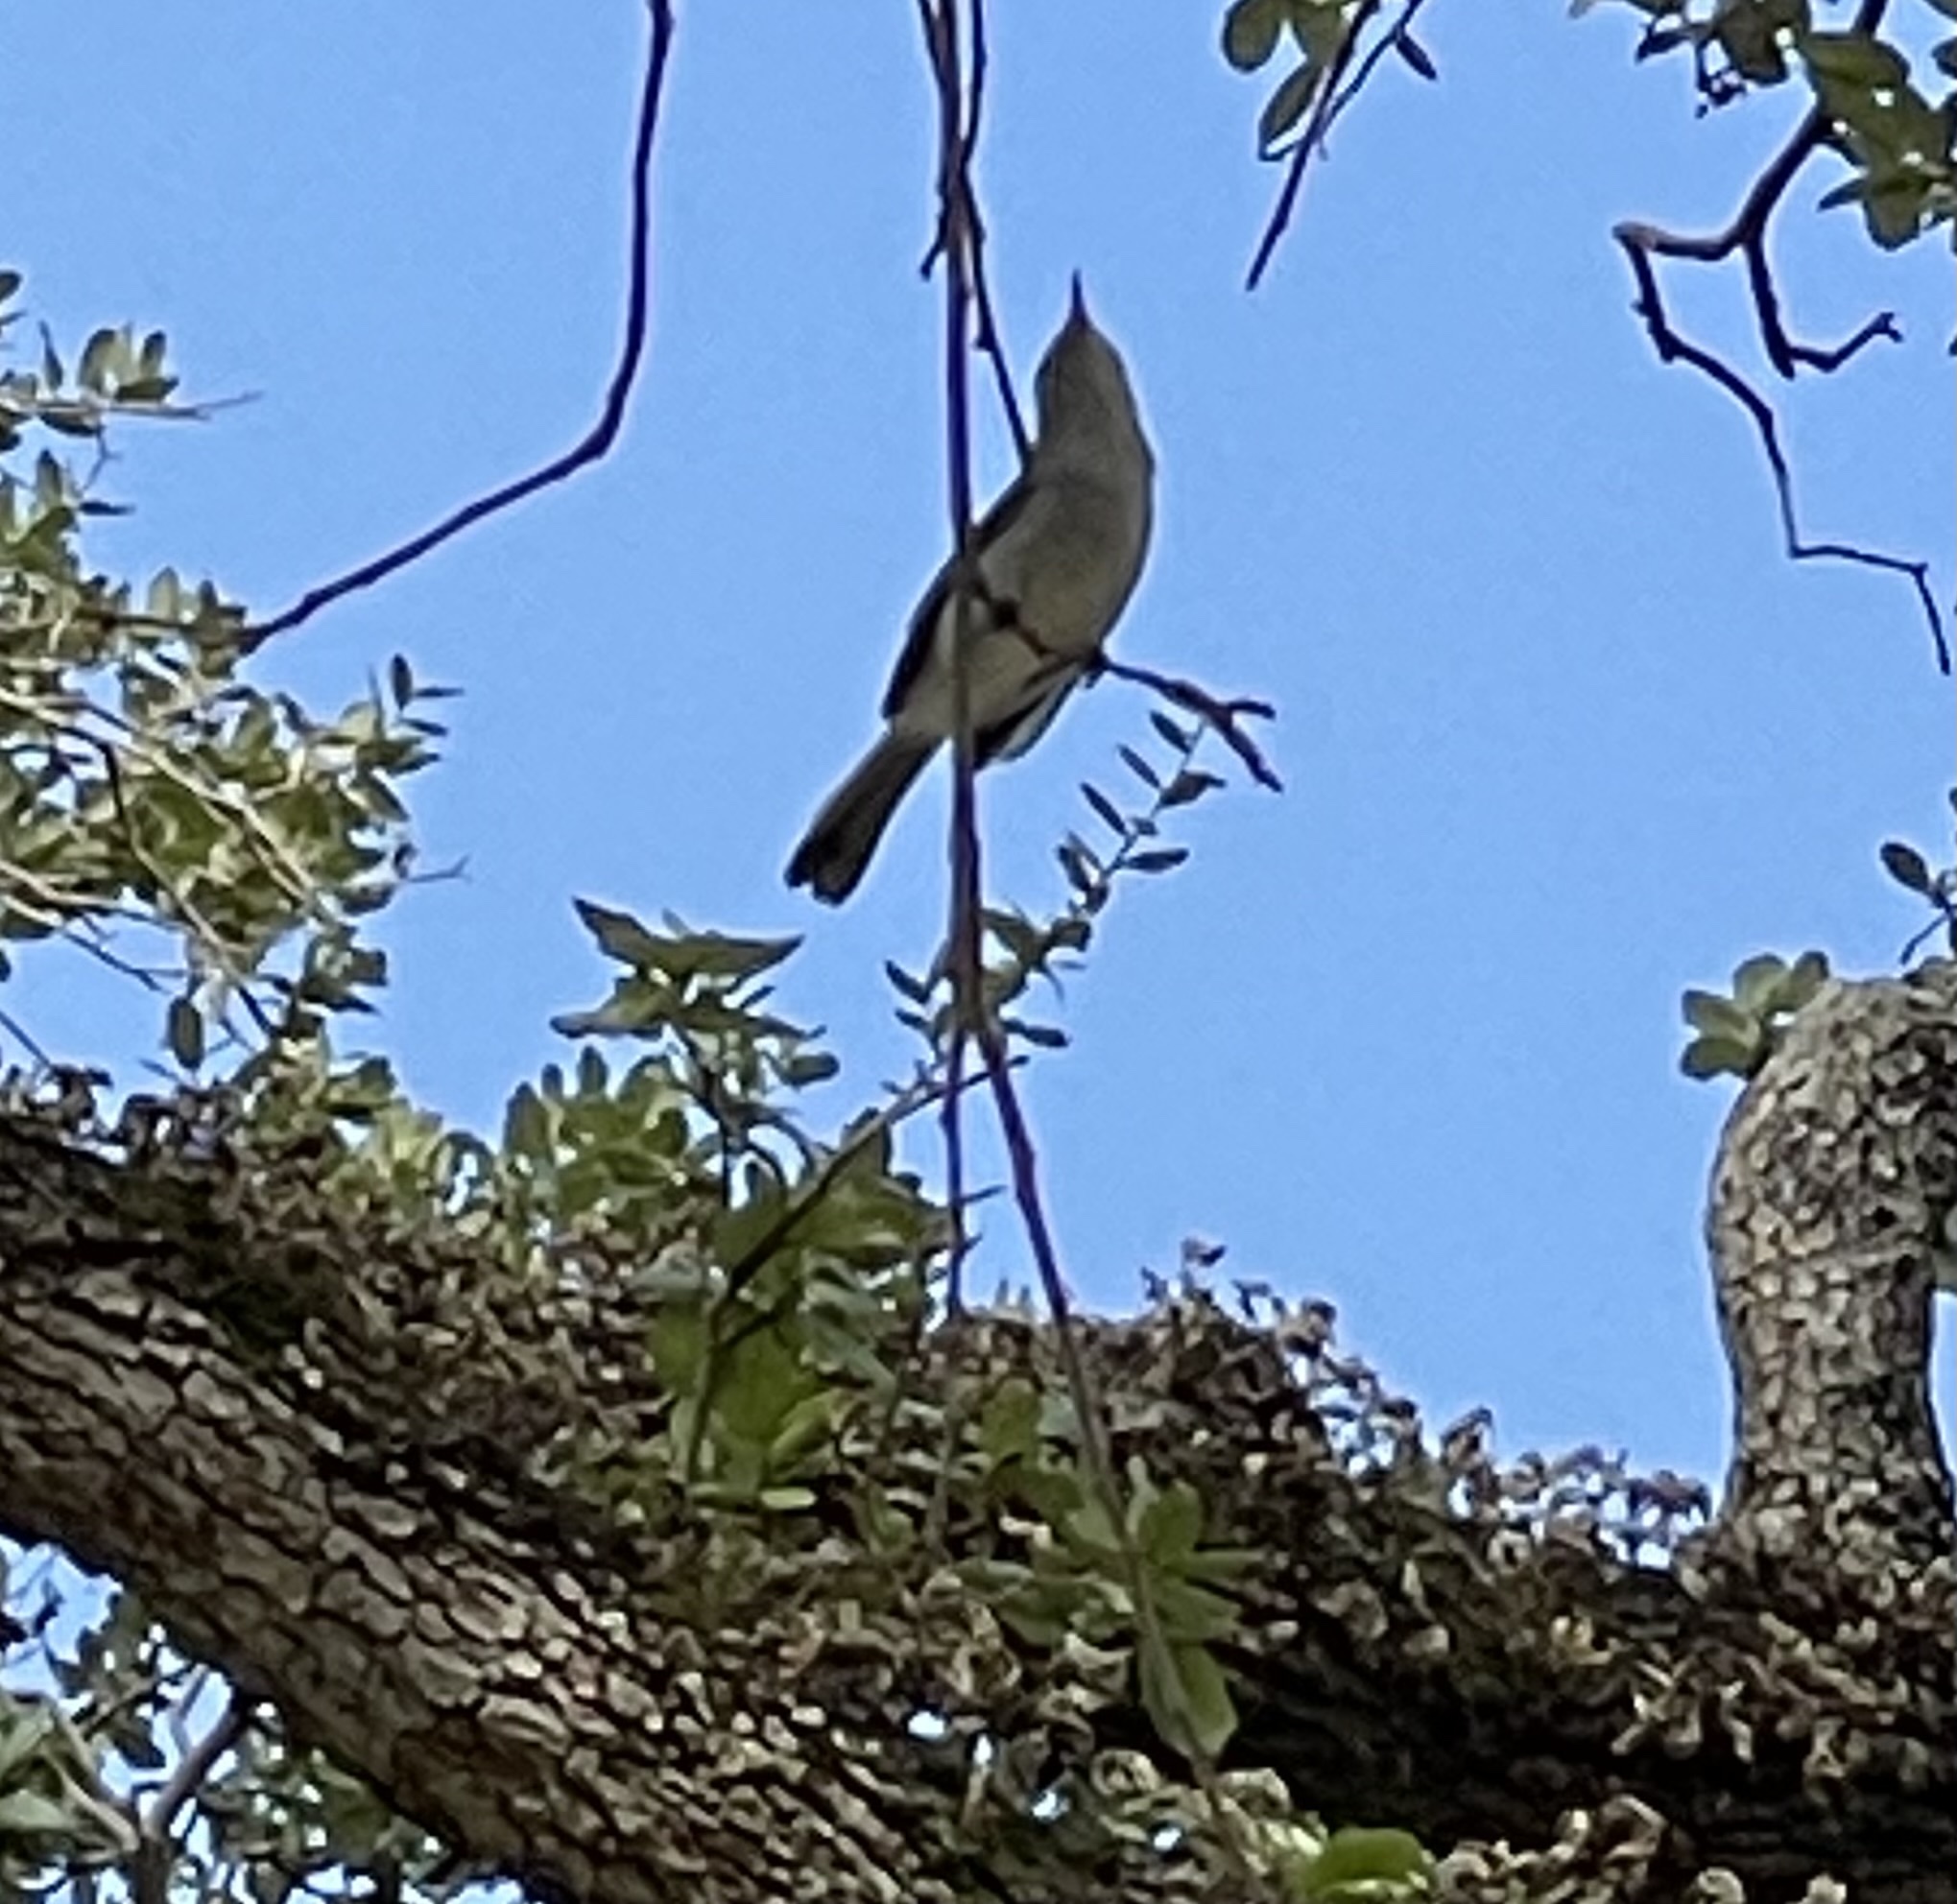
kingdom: Animalia
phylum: Chordata
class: Aves
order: Passeriformes
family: Polioptilidae
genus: Polioptila
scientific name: Polioptila caerulea
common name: Blue-gray gnatcatcher
